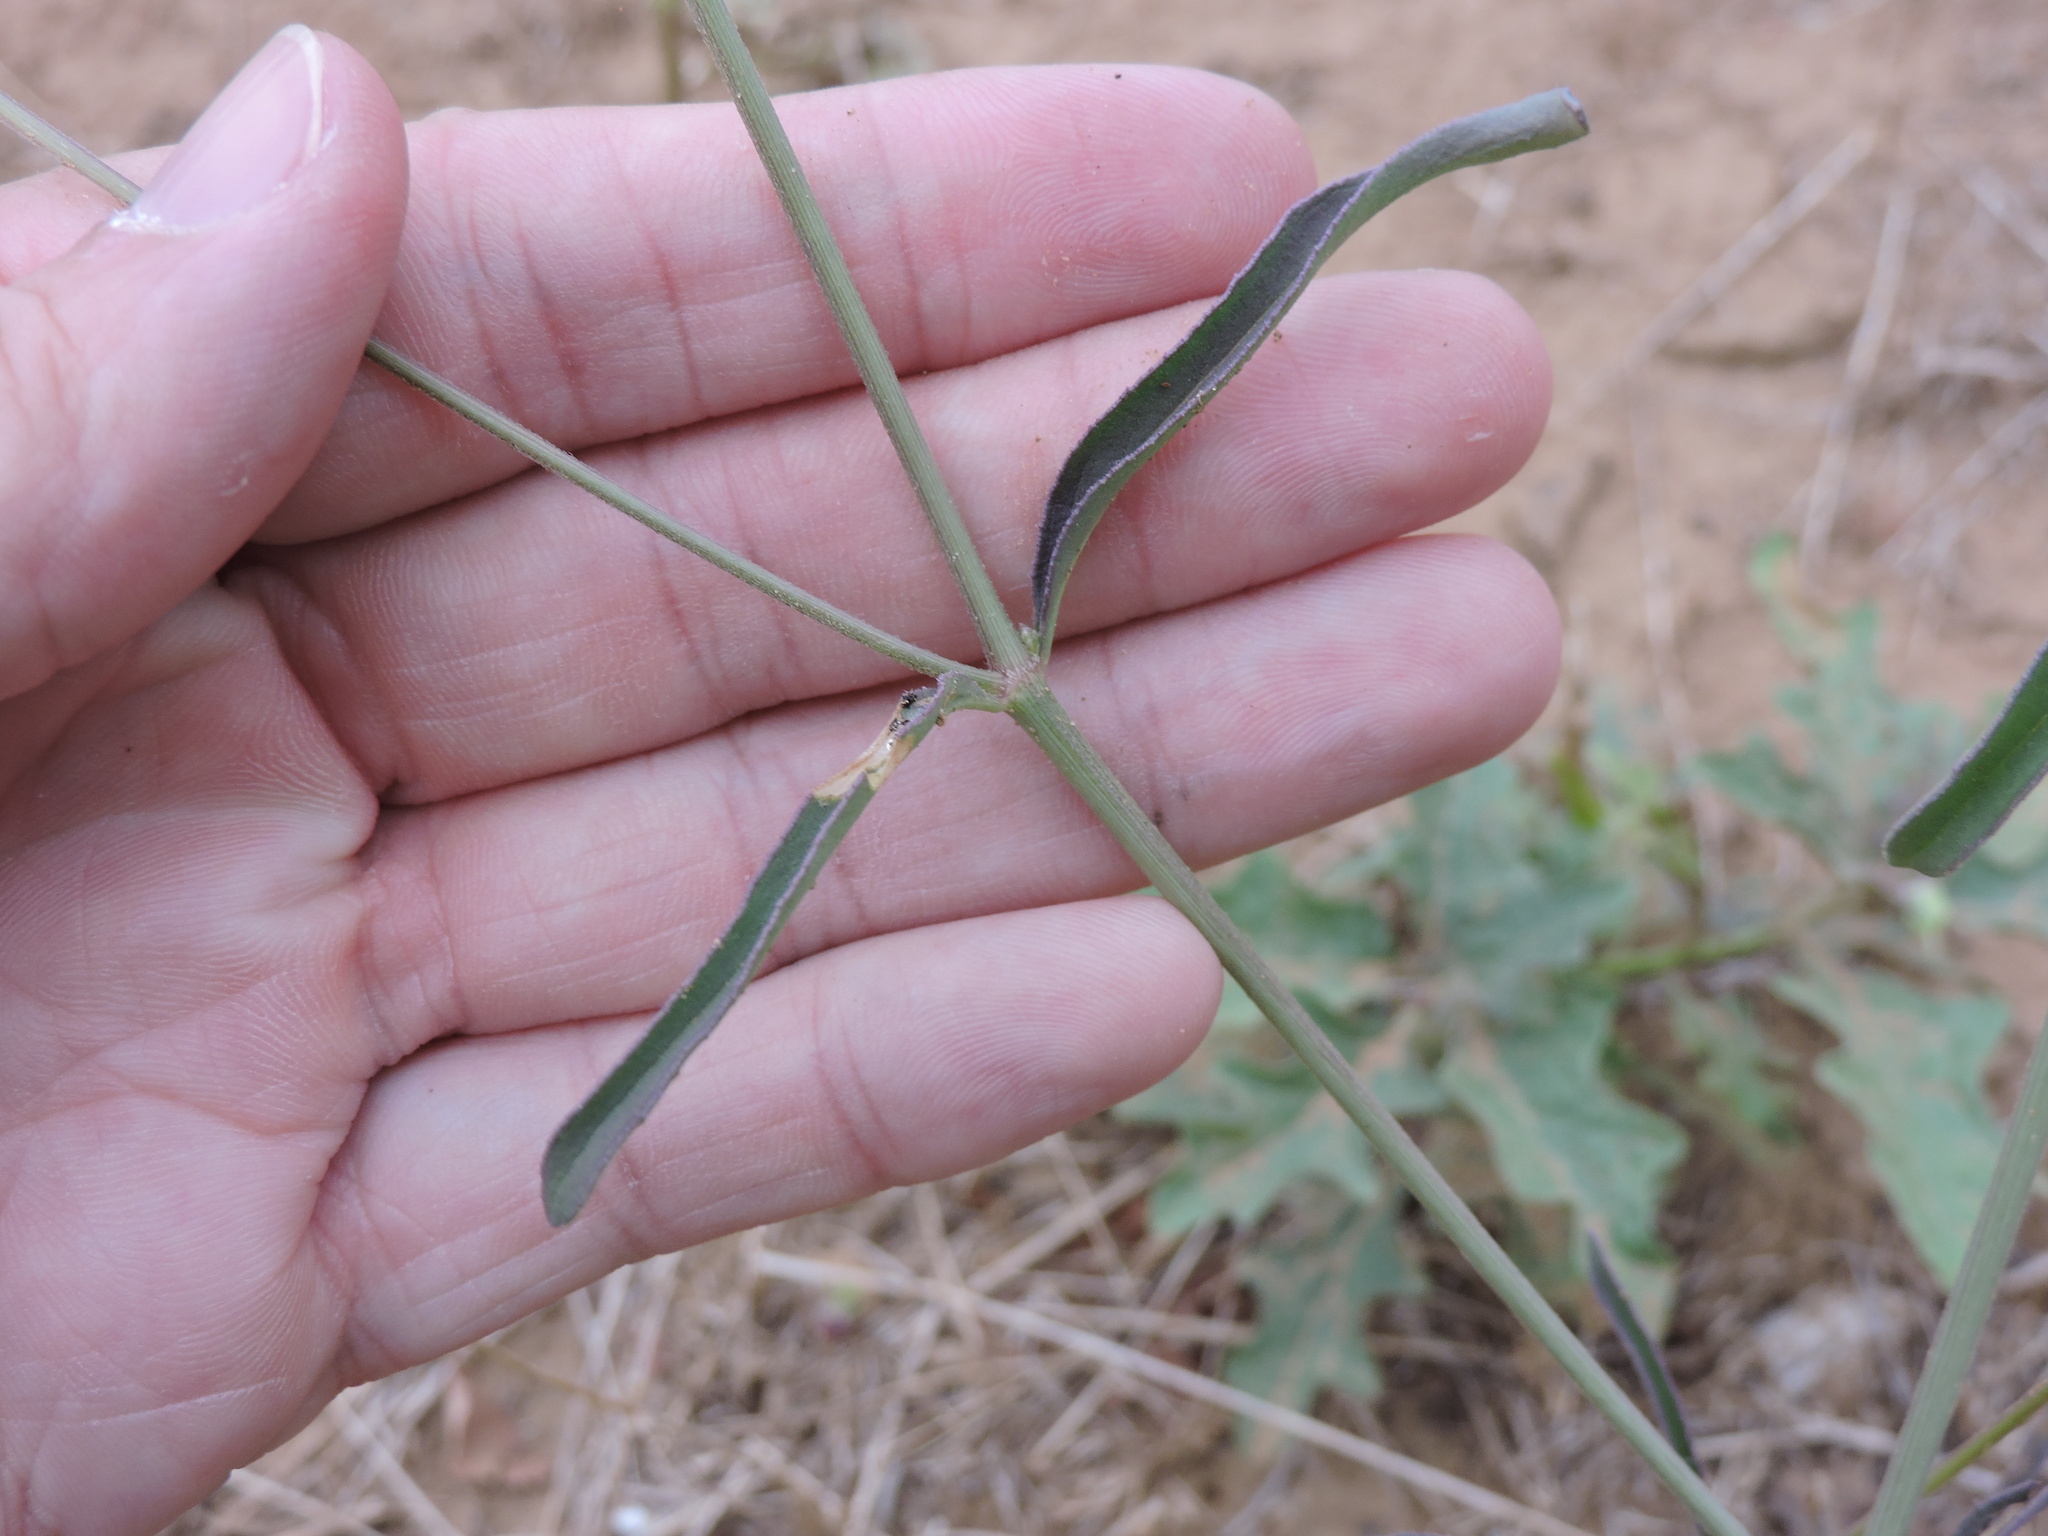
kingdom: Plantae
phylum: Tracheophyta
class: Magnoliopsida
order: Caryophyllales
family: Nyctaginaceae
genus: Mirabilis
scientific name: Mirabilis albida
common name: Hairy four-o'clock
